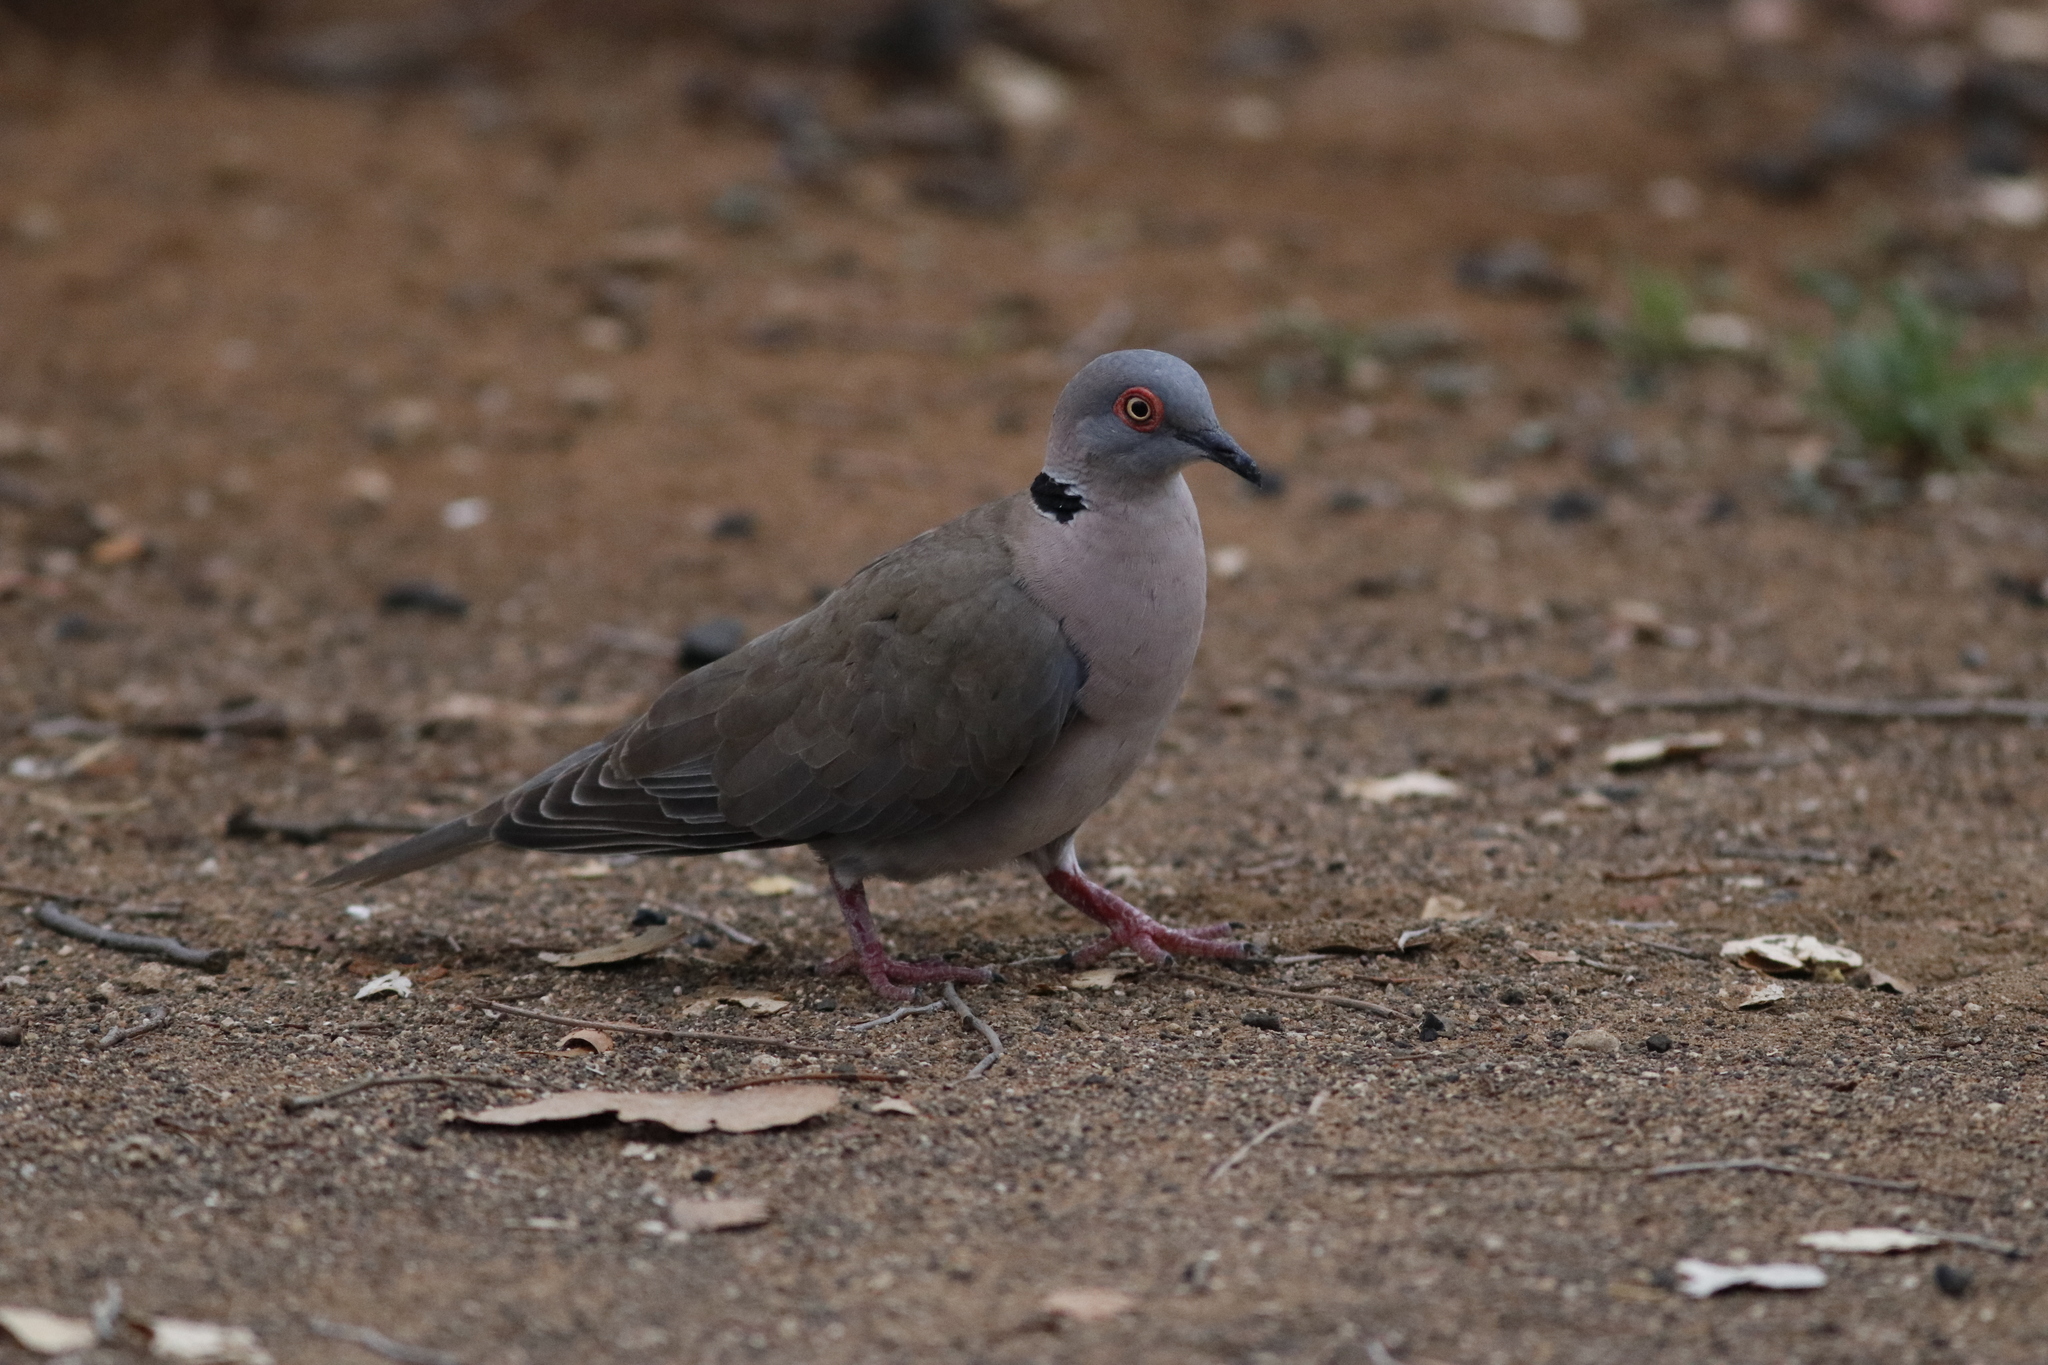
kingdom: Animalia
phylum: Chordata
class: Aves
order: Columbiformes
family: Columbidae
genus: Streptopelia
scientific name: Streptopelia decipiens
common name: Mourning collared dove
